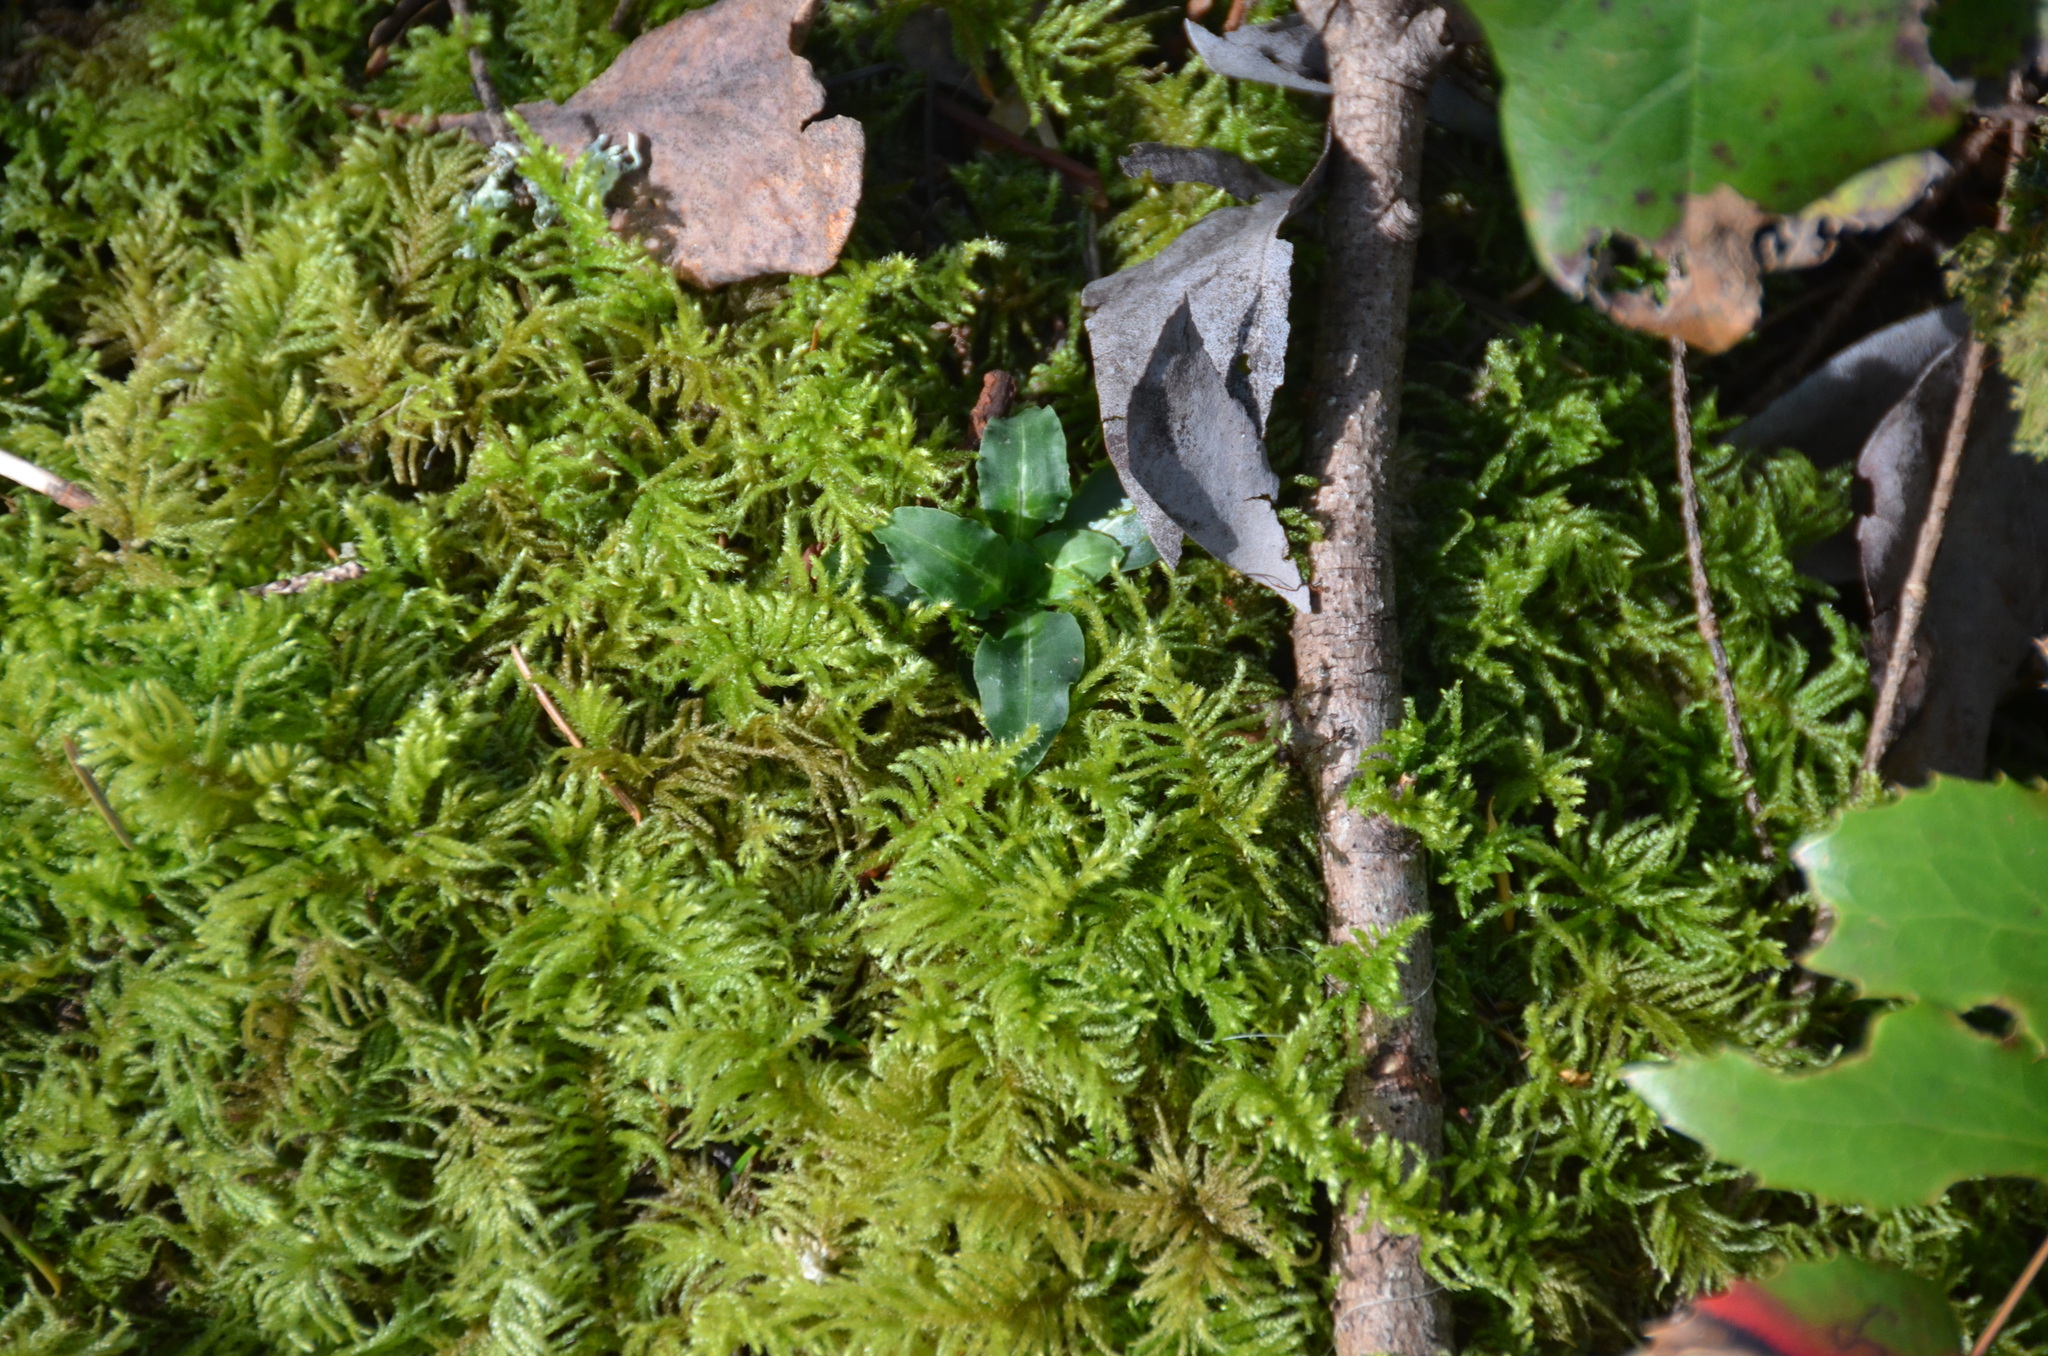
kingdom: Plantae
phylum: Tracheophyta
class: Liliopsida
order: Asparagales
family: Orchidaceae
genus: Goodyera
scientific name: Goodyera oblongifolia
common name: Giant rattlesnake-plantain
